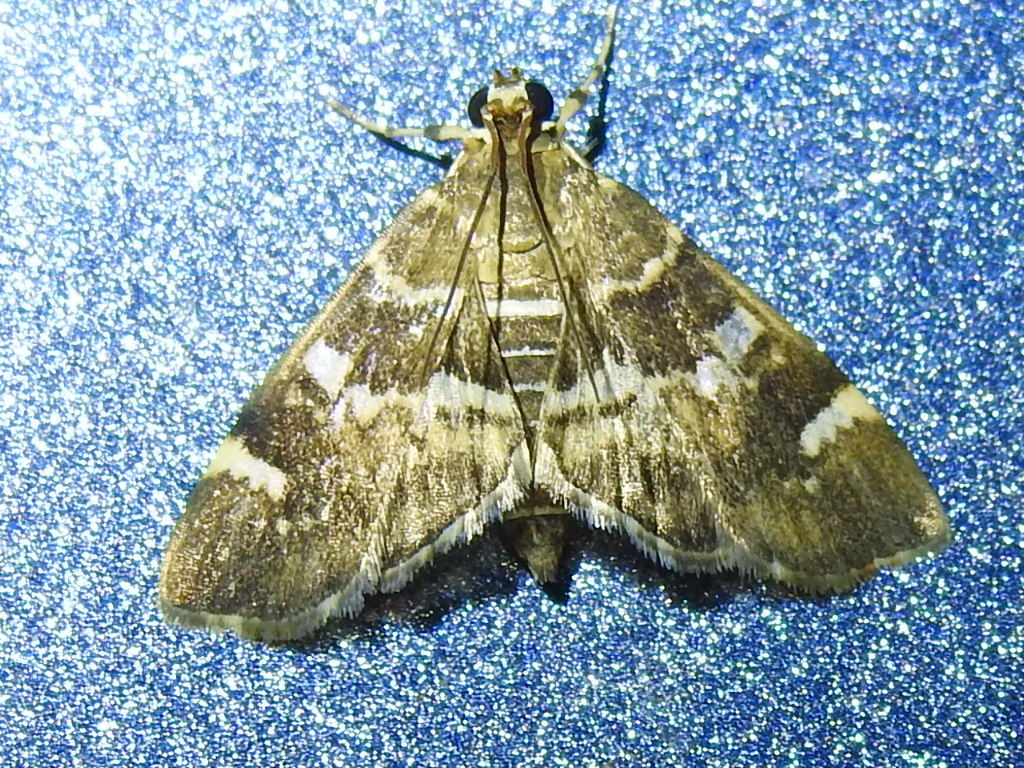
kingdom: Animalia
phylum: Arthropoda
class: Insecta
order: Lepidoptera
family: Crambidae
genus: Hymenia
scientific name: Hymenia perspectalis
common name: Spotted beet webworm
